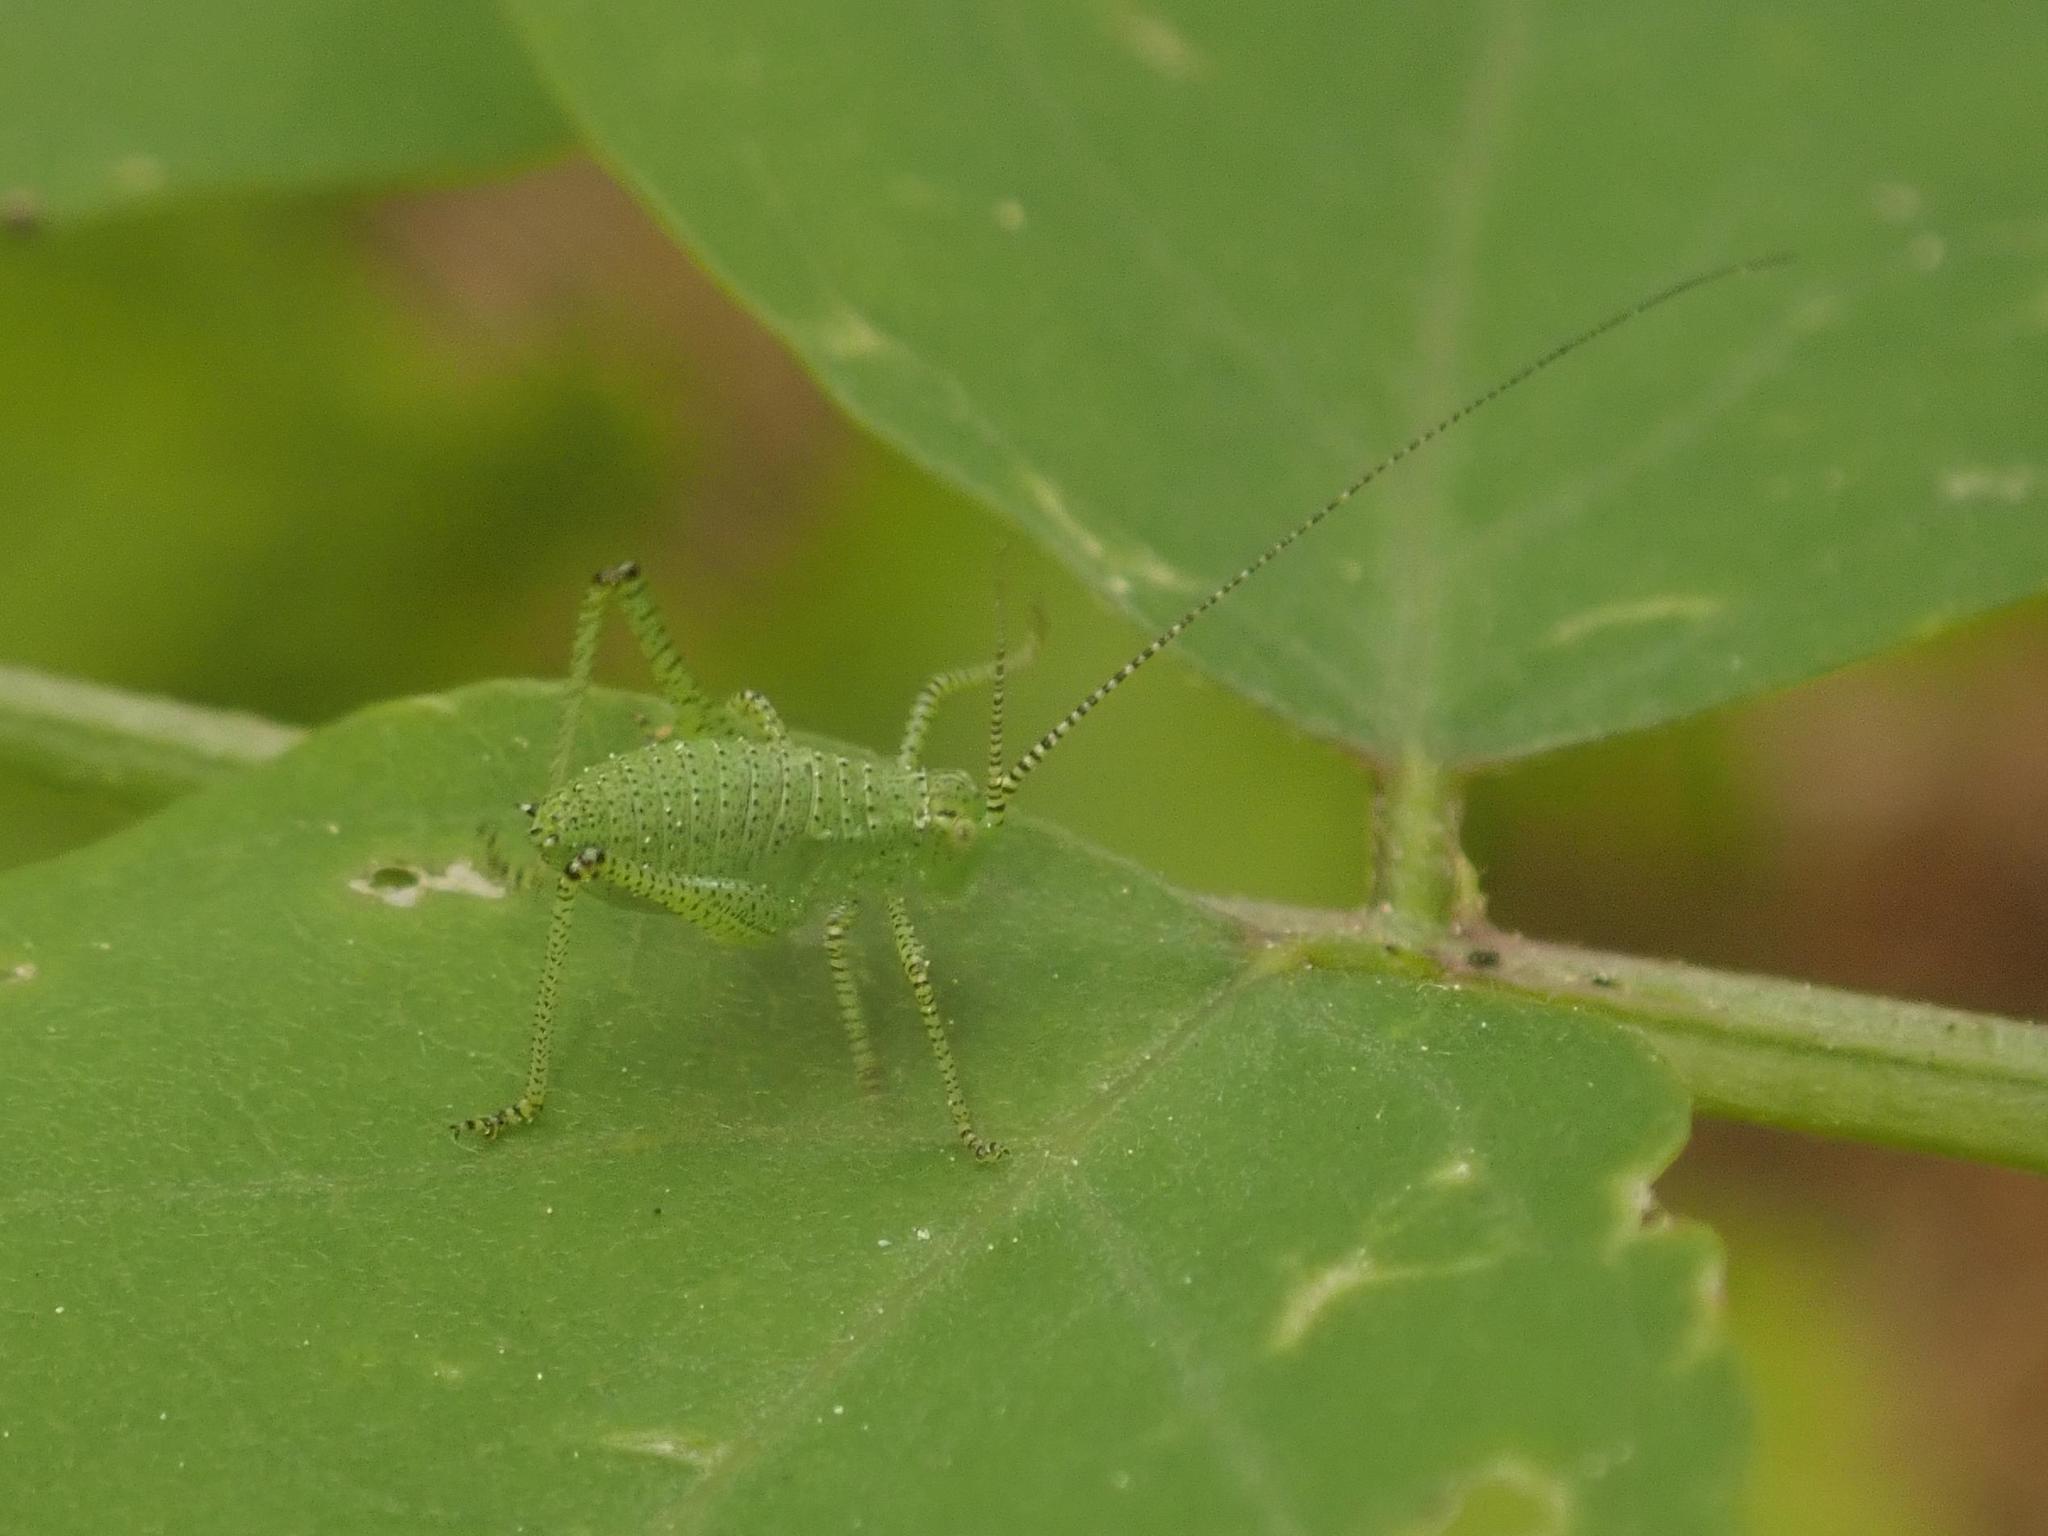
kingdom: Animalia
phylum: Arthropoda
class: Insecta
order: Orthoptera
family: Tettigoniidae
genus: Leptophyes
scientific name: Leptophyes punctatissima
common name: Speckled bush-cricket
